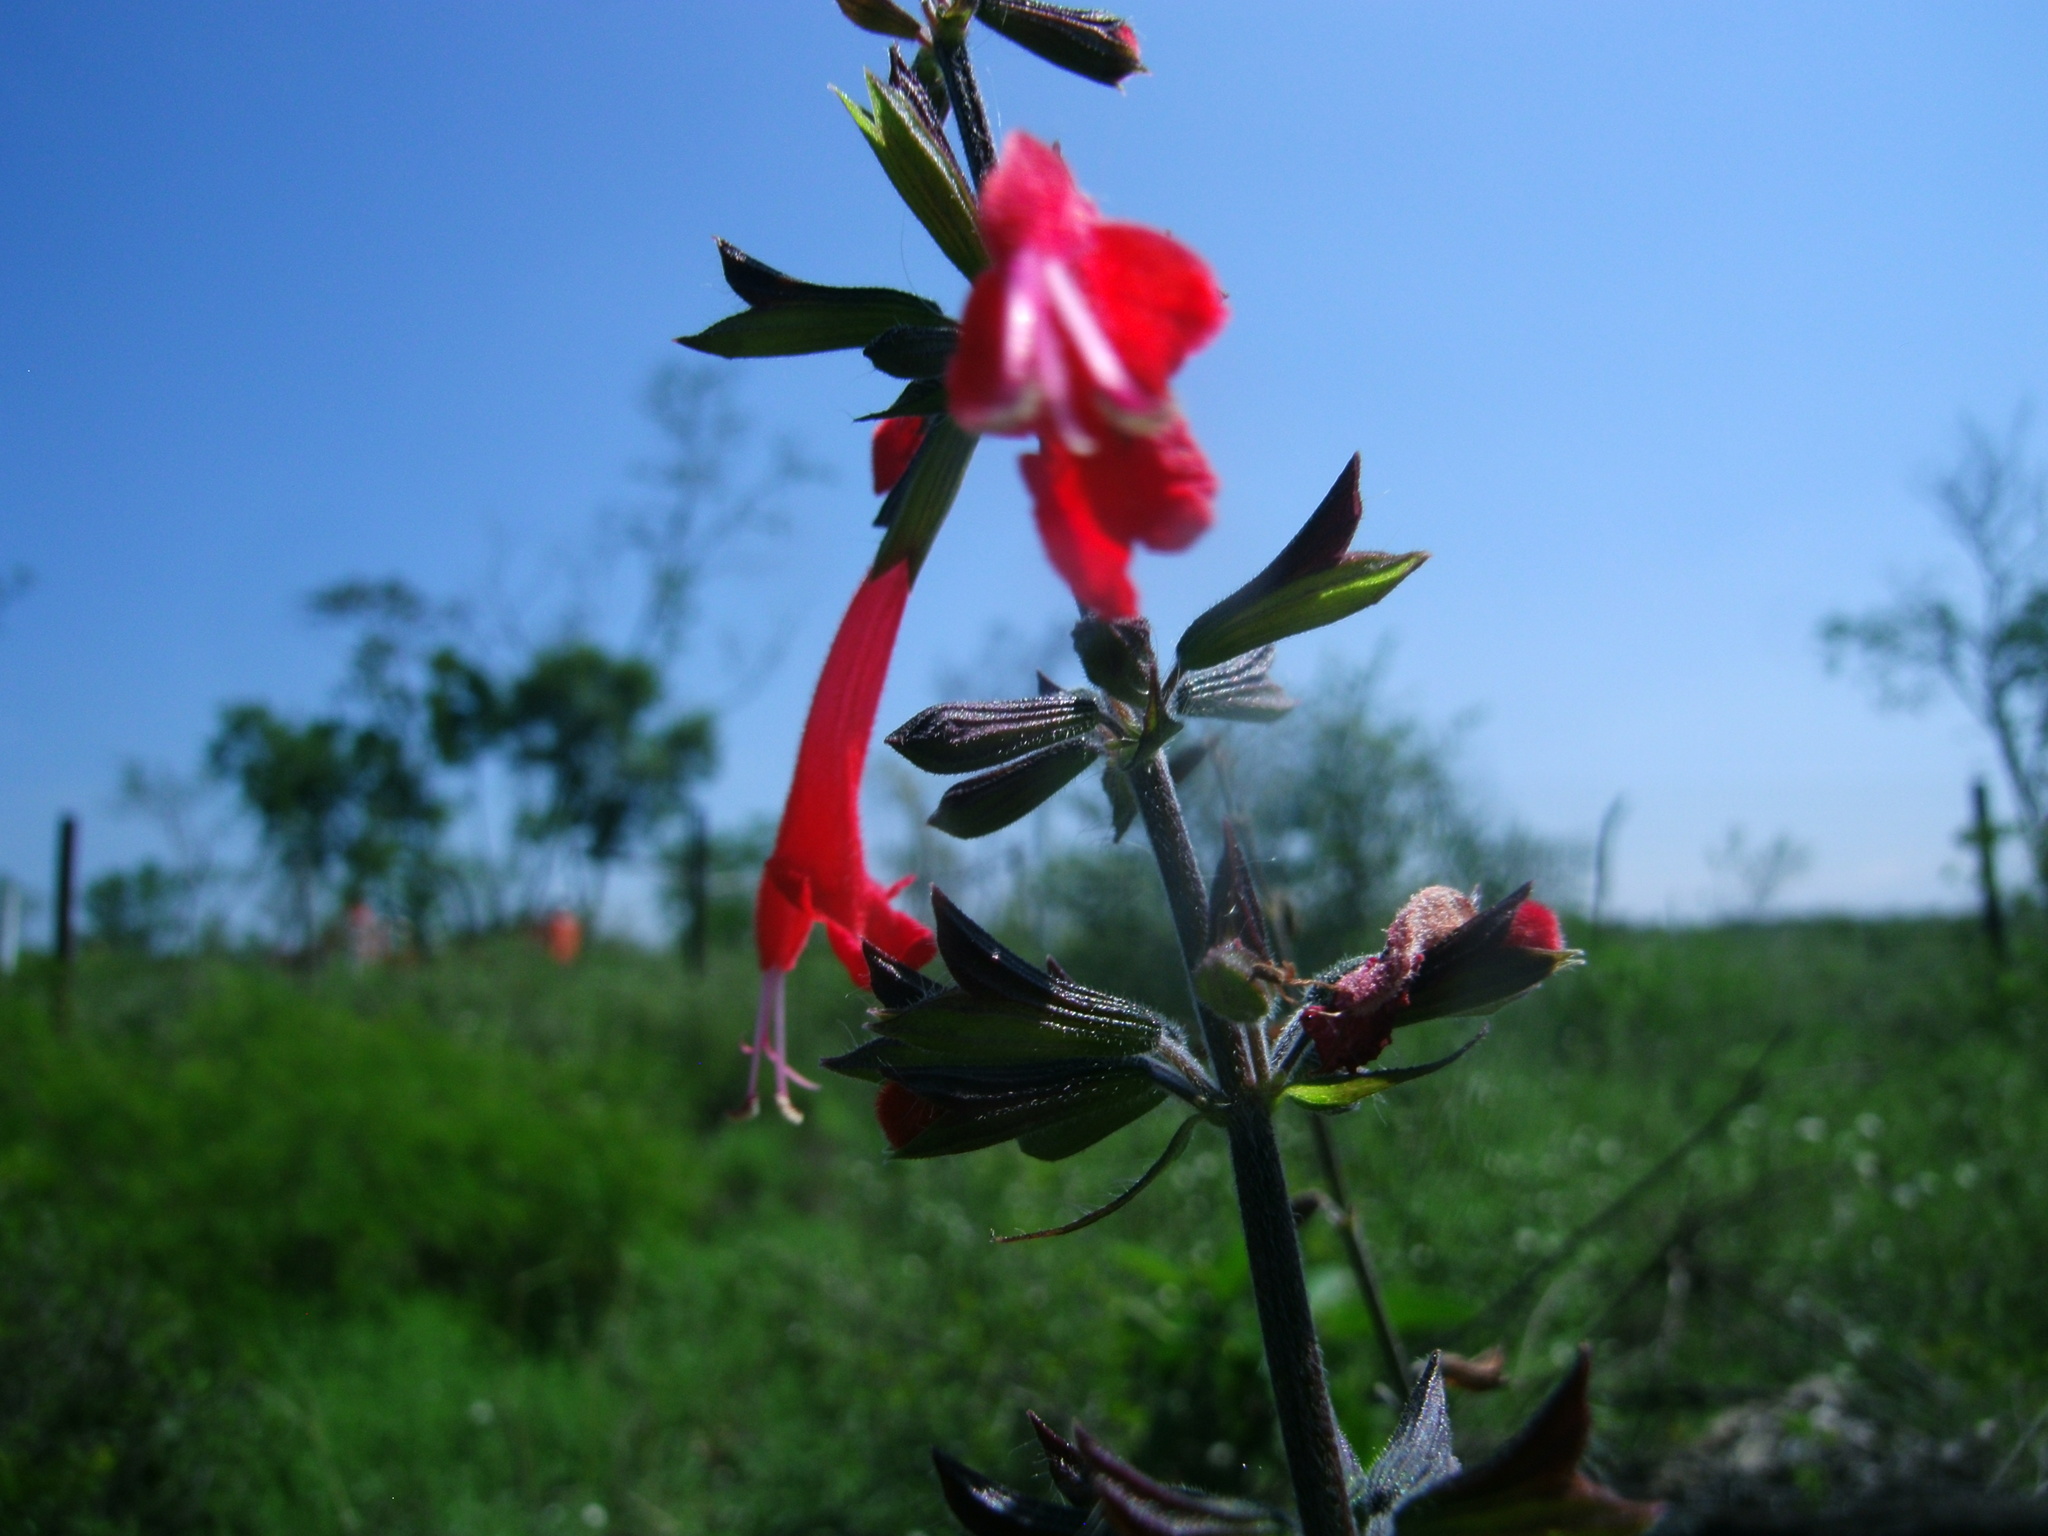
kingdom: Plantae
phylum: Tracheophyta
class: Magnoliopsida
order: Lamiales
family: Lamiaceae
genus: Salvia
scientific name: Salvia coccinea
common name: Blood sage
